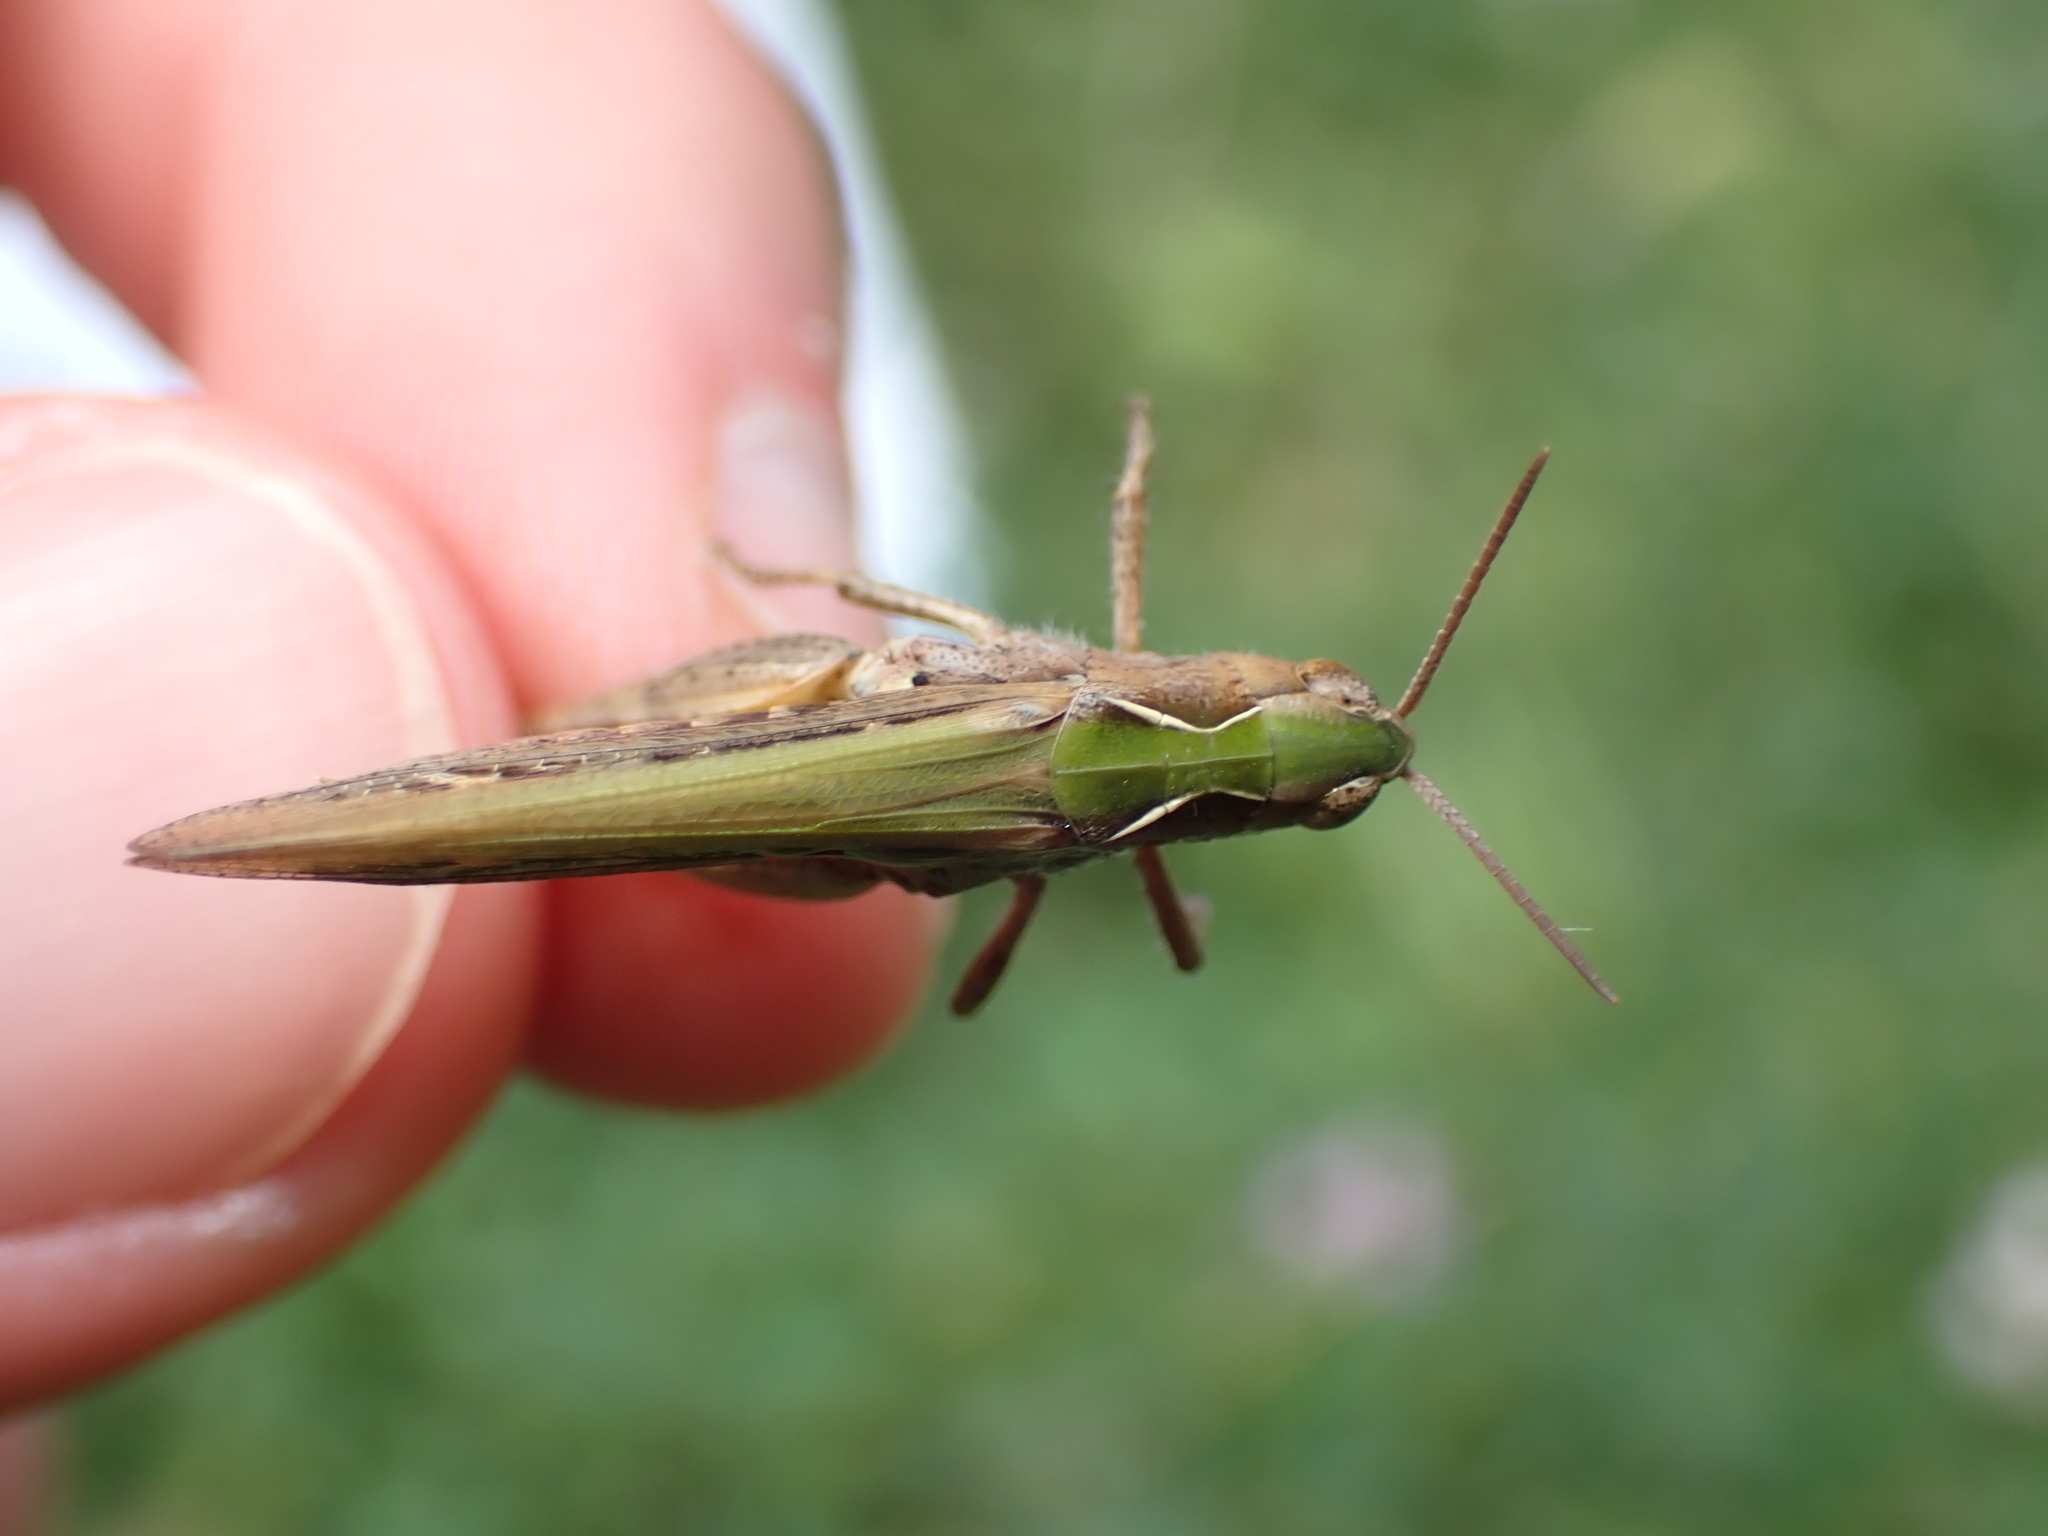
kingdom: Animalia
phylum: Arthropoda
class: Insecta
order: Orthoptera
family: Acrididae
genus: Glyptobothrus
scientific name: Glyptobothrus
